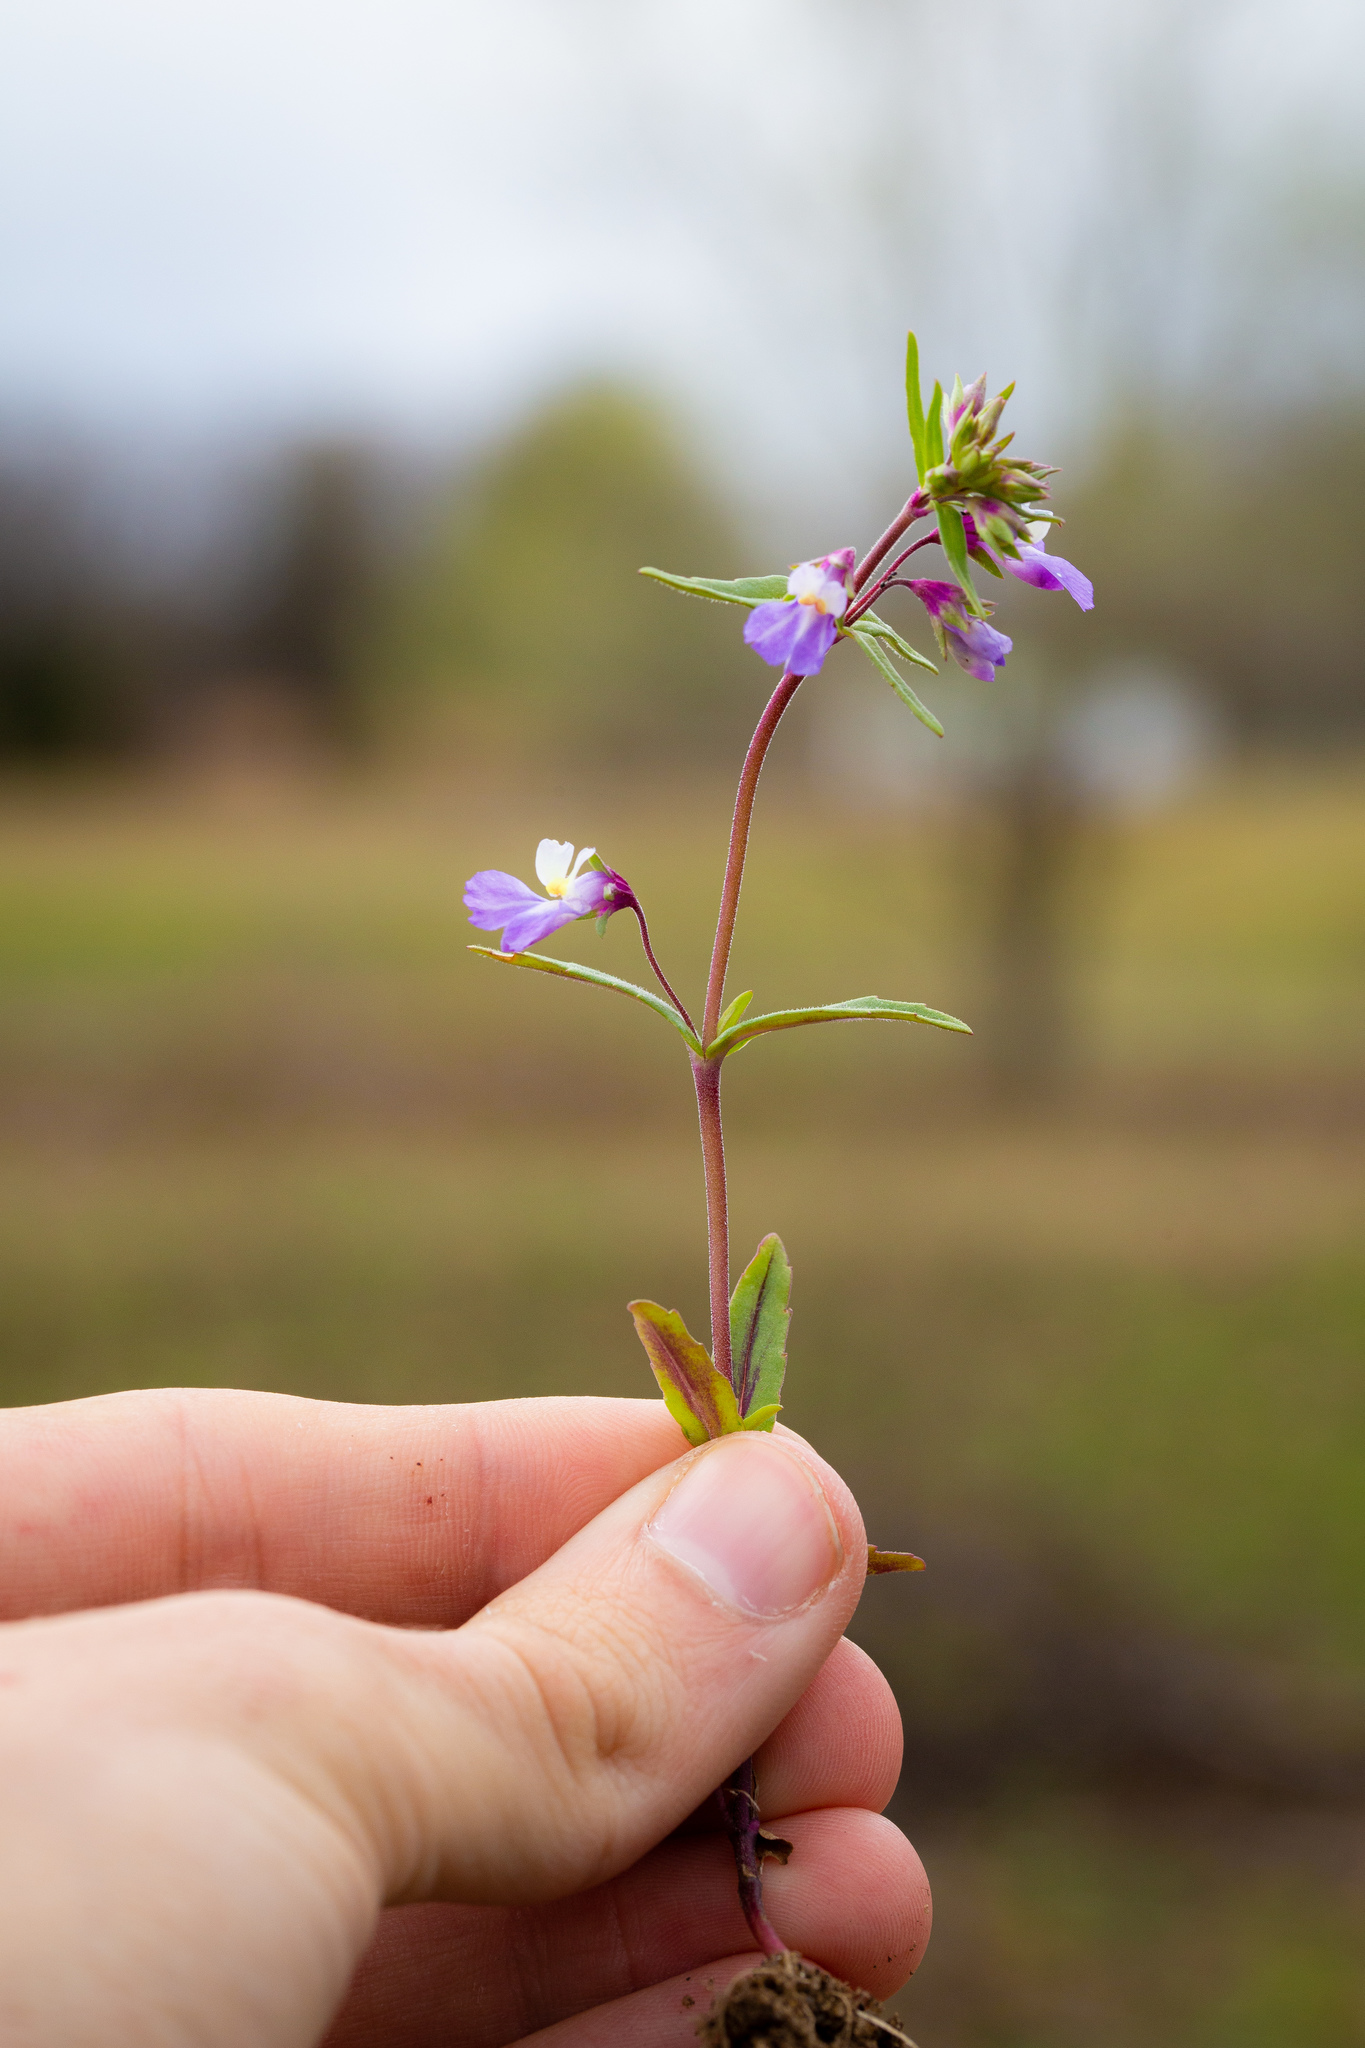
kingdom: Plantae
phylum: Tracheophyta
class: Magnoliopsida
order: Lamiales
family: Plantaginaceae
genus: Collinsia
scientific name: Collinsia violacea
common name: Violet collinsia
